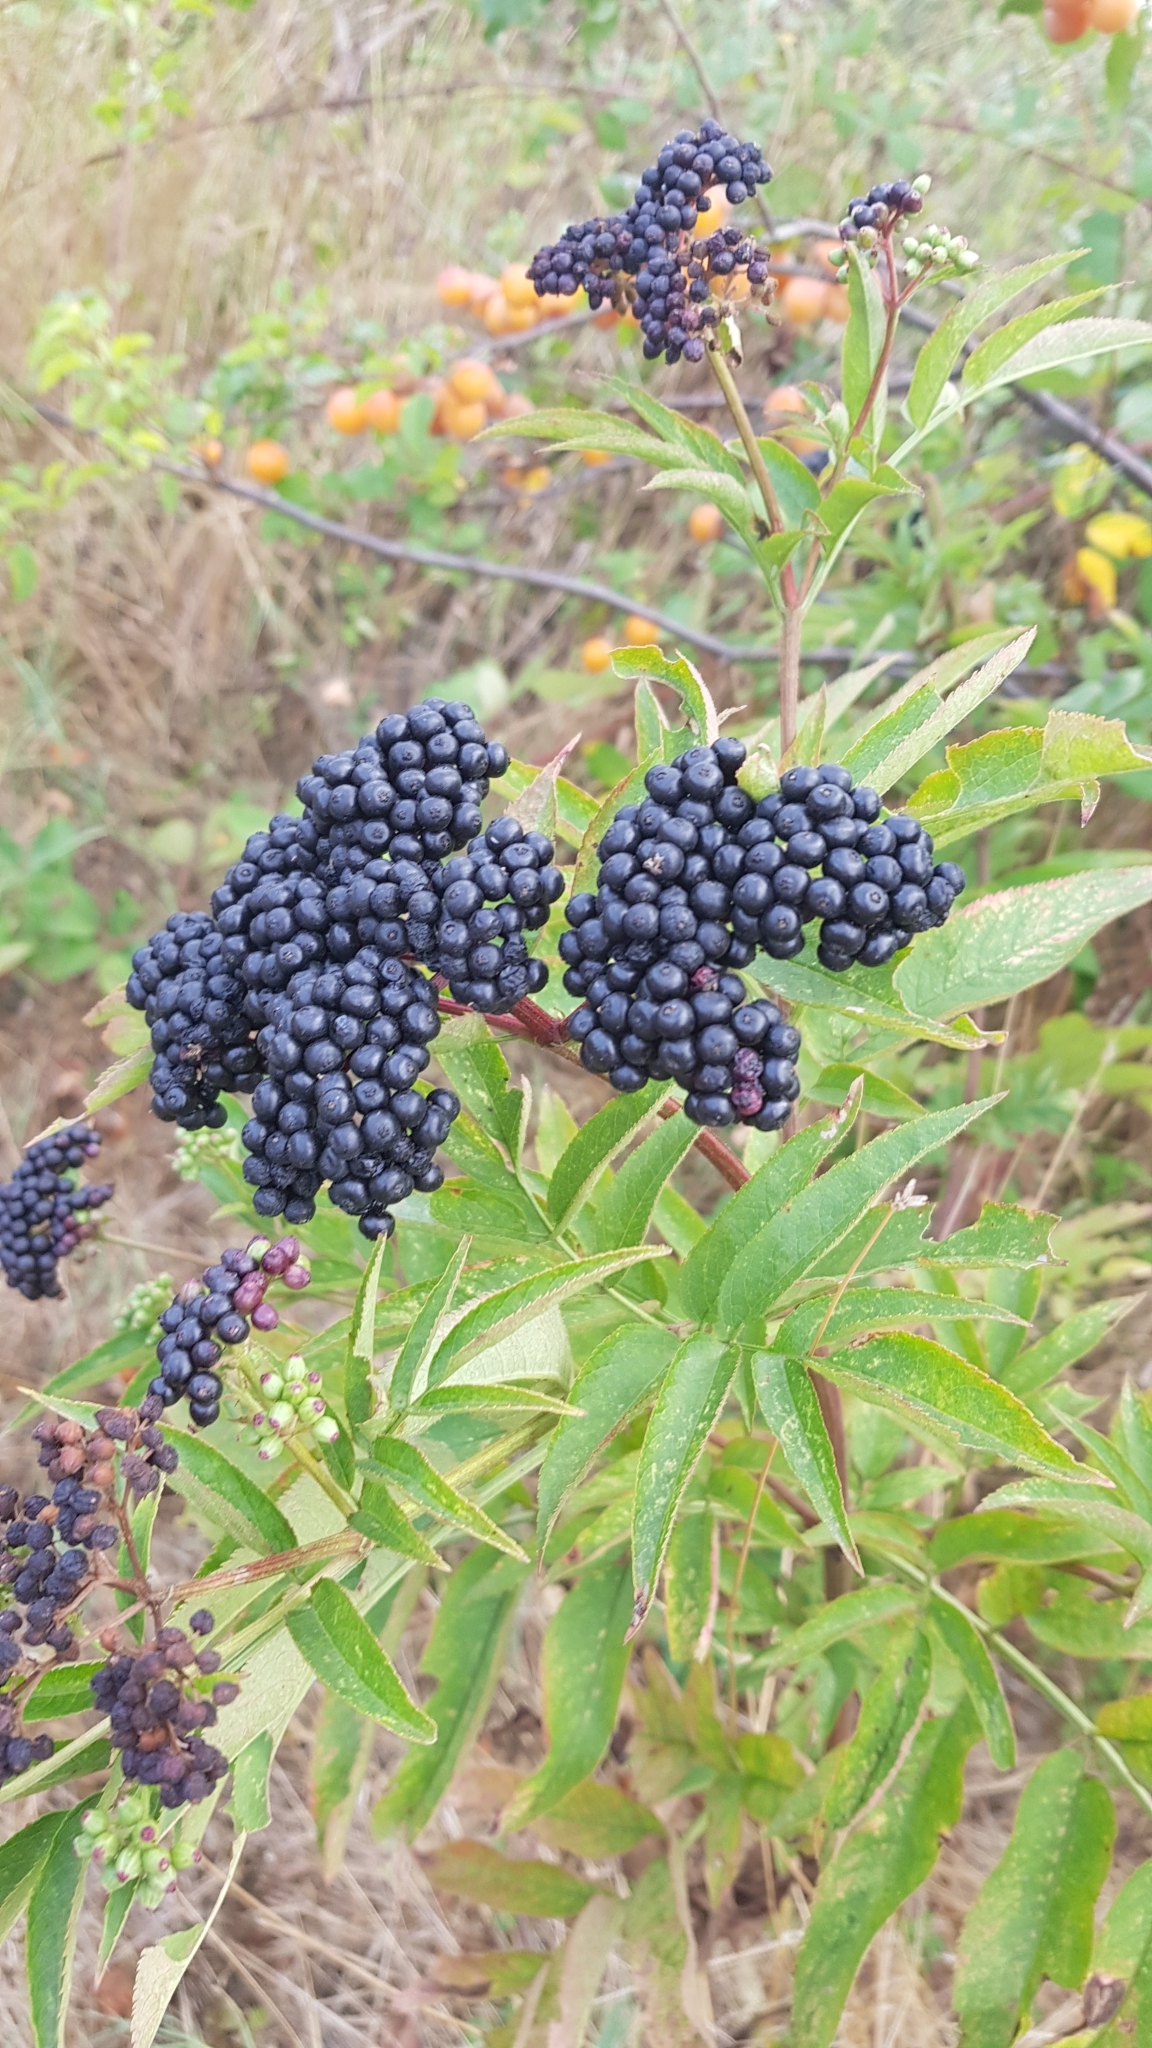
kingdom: Plantae
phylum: Tracheophyta
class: Magnoliopsida
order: Dipsacales
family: Viburnaceae
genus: Sambucus
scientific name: Sambucus ebulus
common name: Dwarf elder
